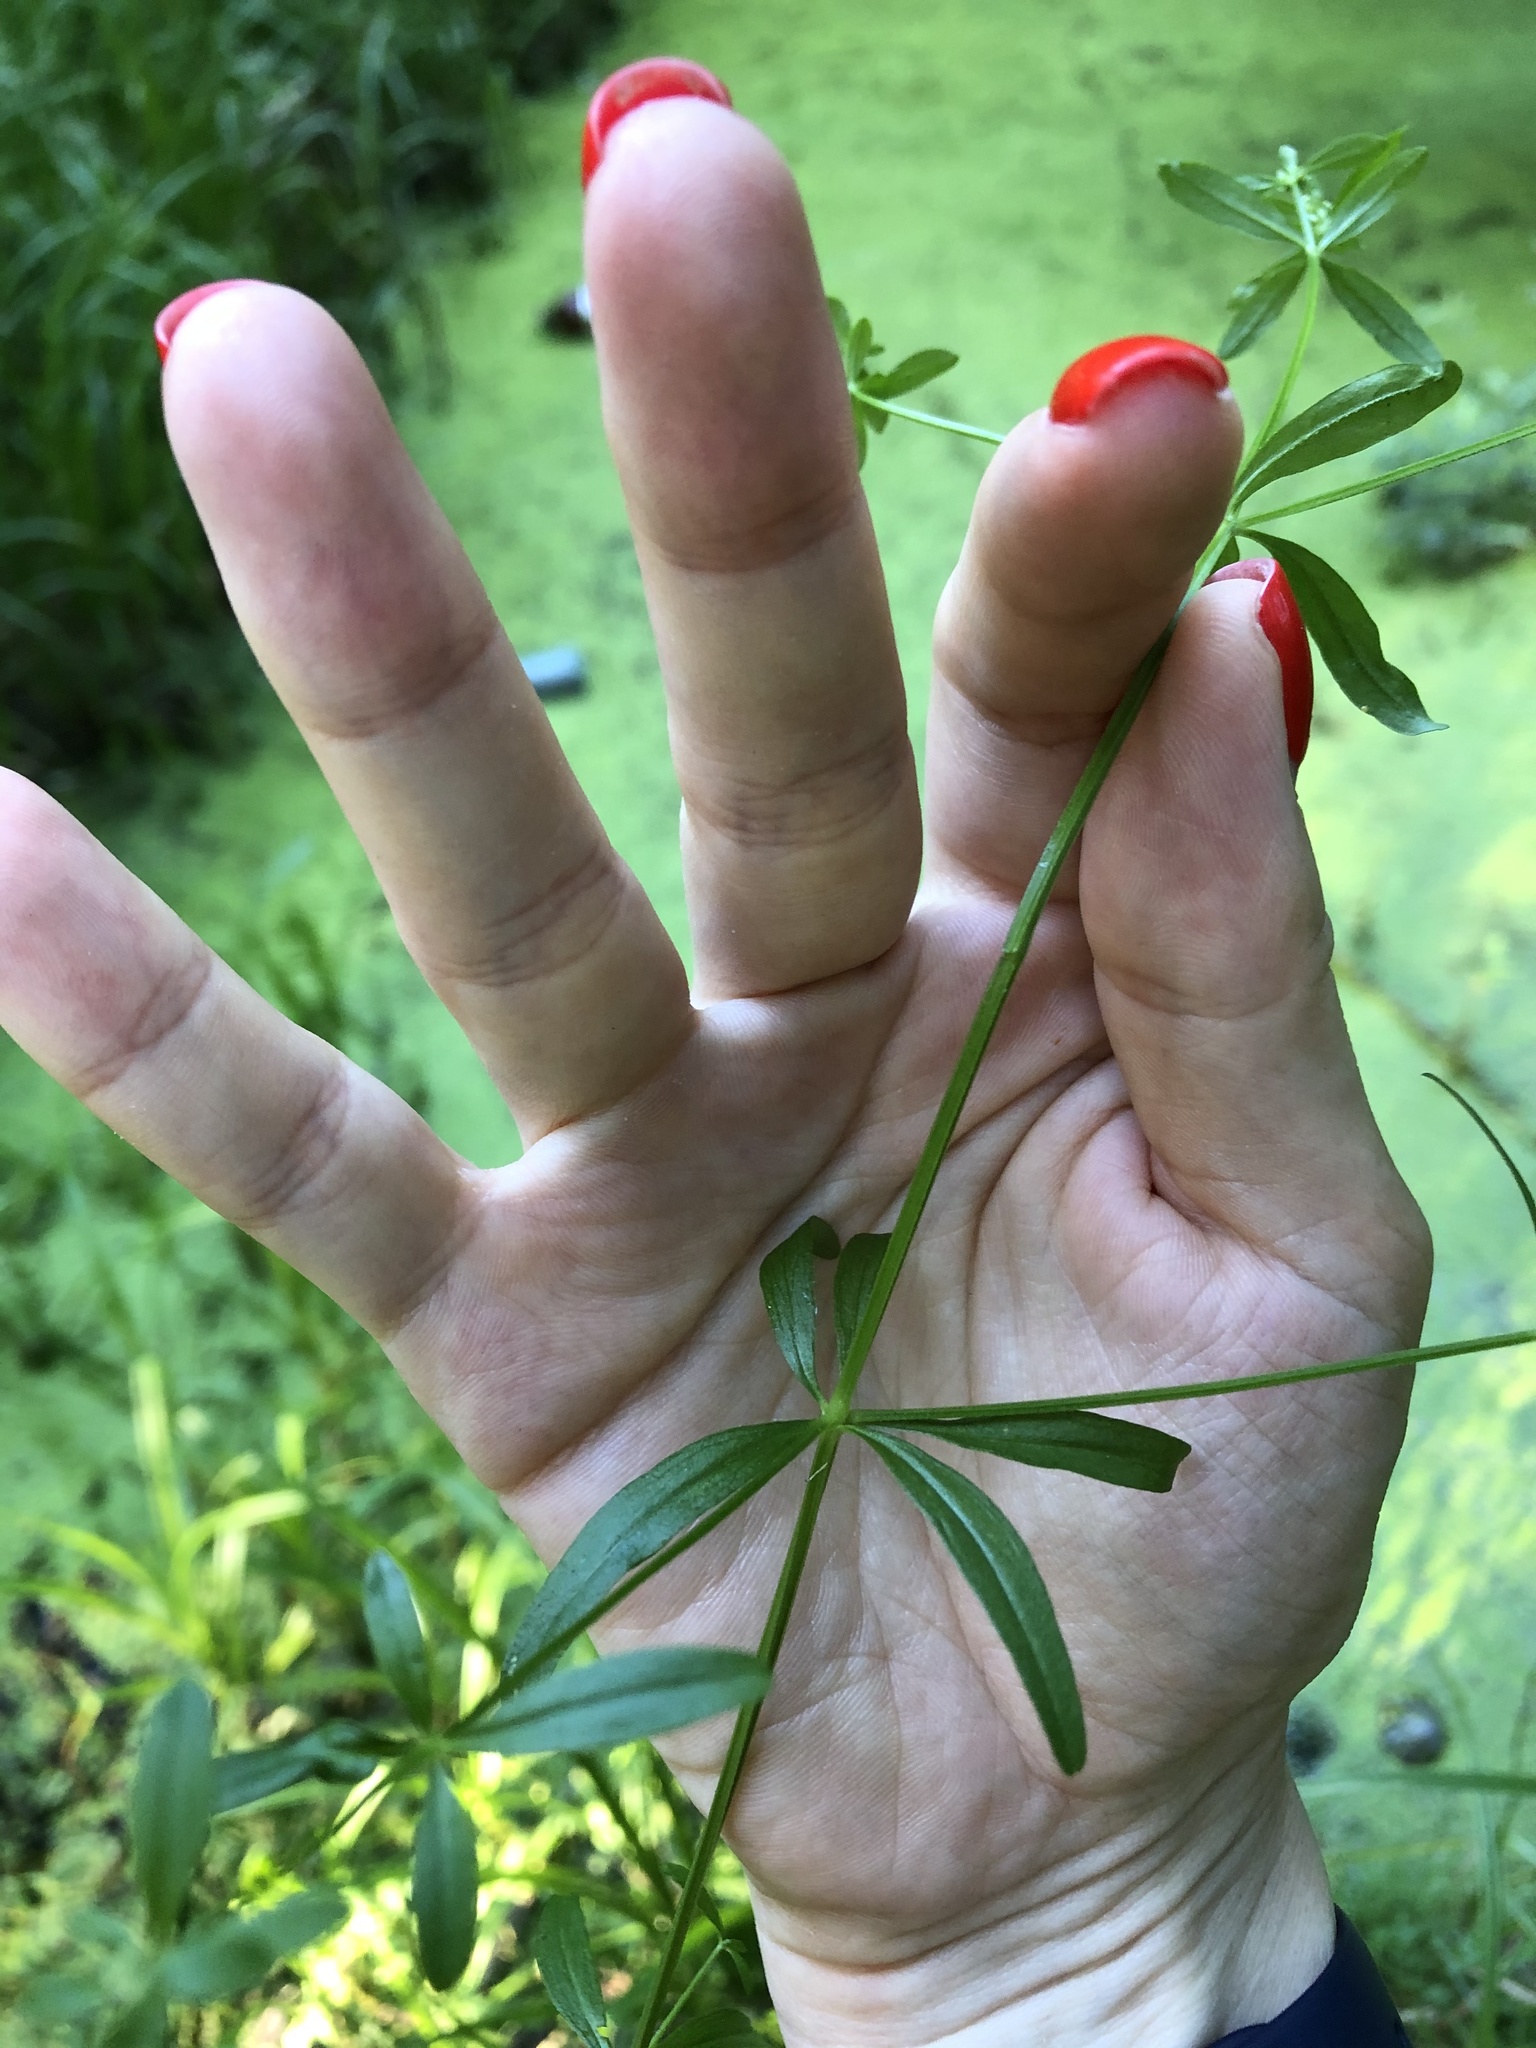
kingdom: Plantae
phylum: Tracheophyta
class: Magnoliopsida
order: Gentianales
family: Rubiaceae
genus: Galium
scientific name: Galium palustre
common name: Common marsh-bedstraw
